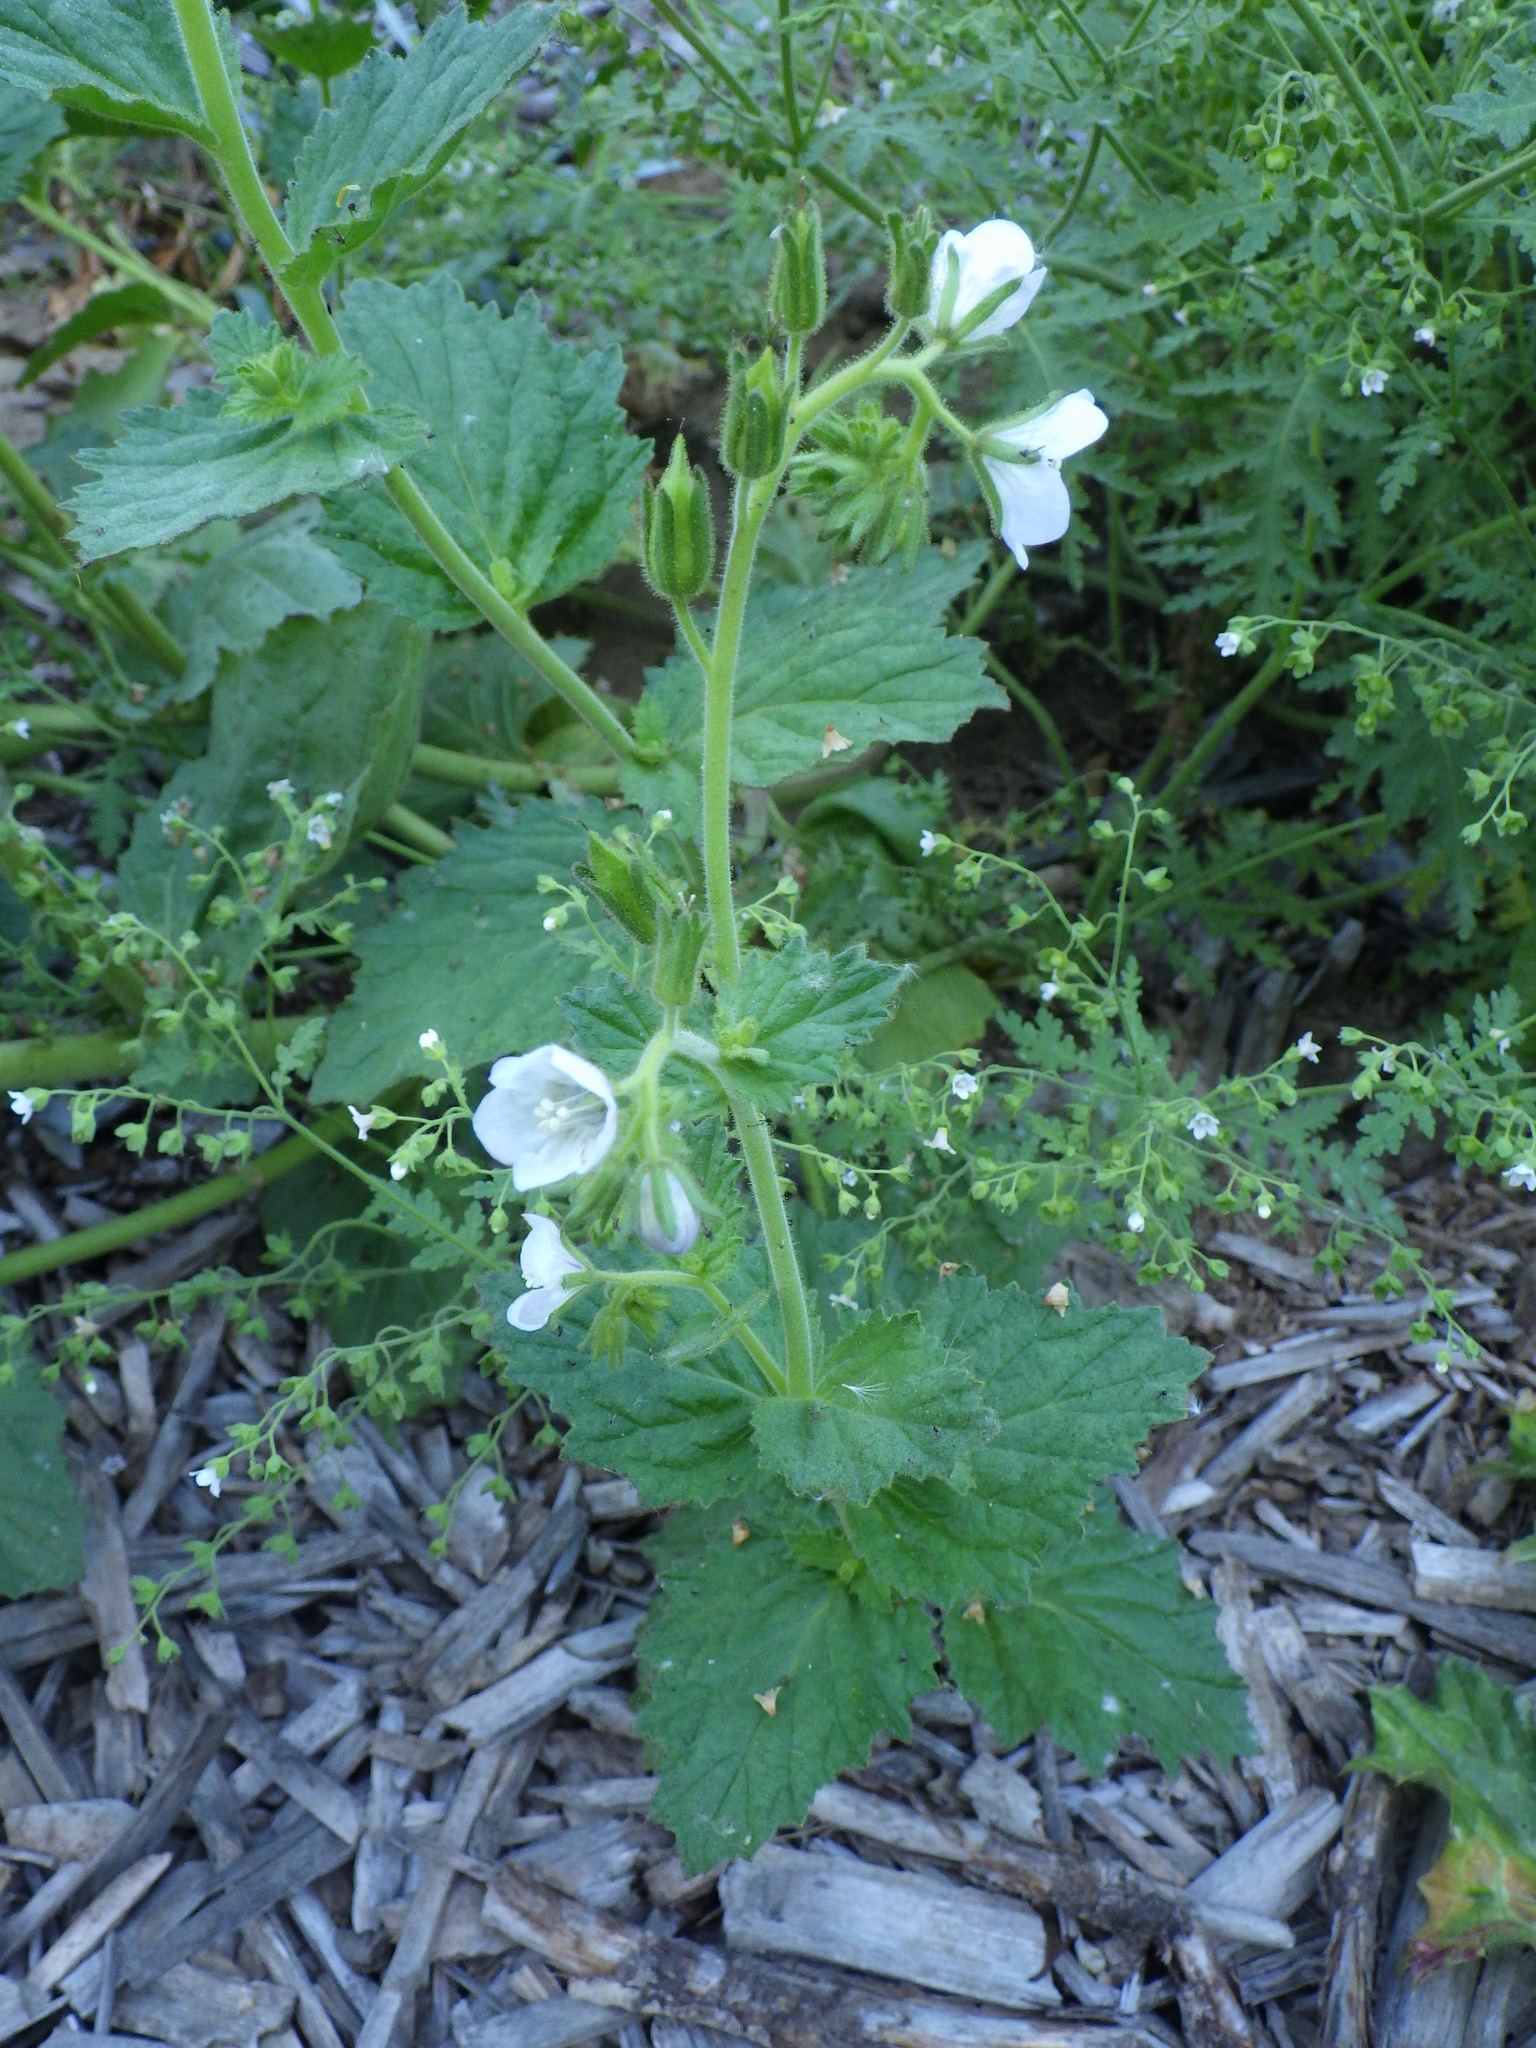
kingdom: Plantae
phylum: Tracheophyta
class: Magnoliopsida
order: Boraginales
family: Hydrophyllaceae
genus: Phacelia
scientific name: Phacelia viscida
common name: Sticky phacelia
